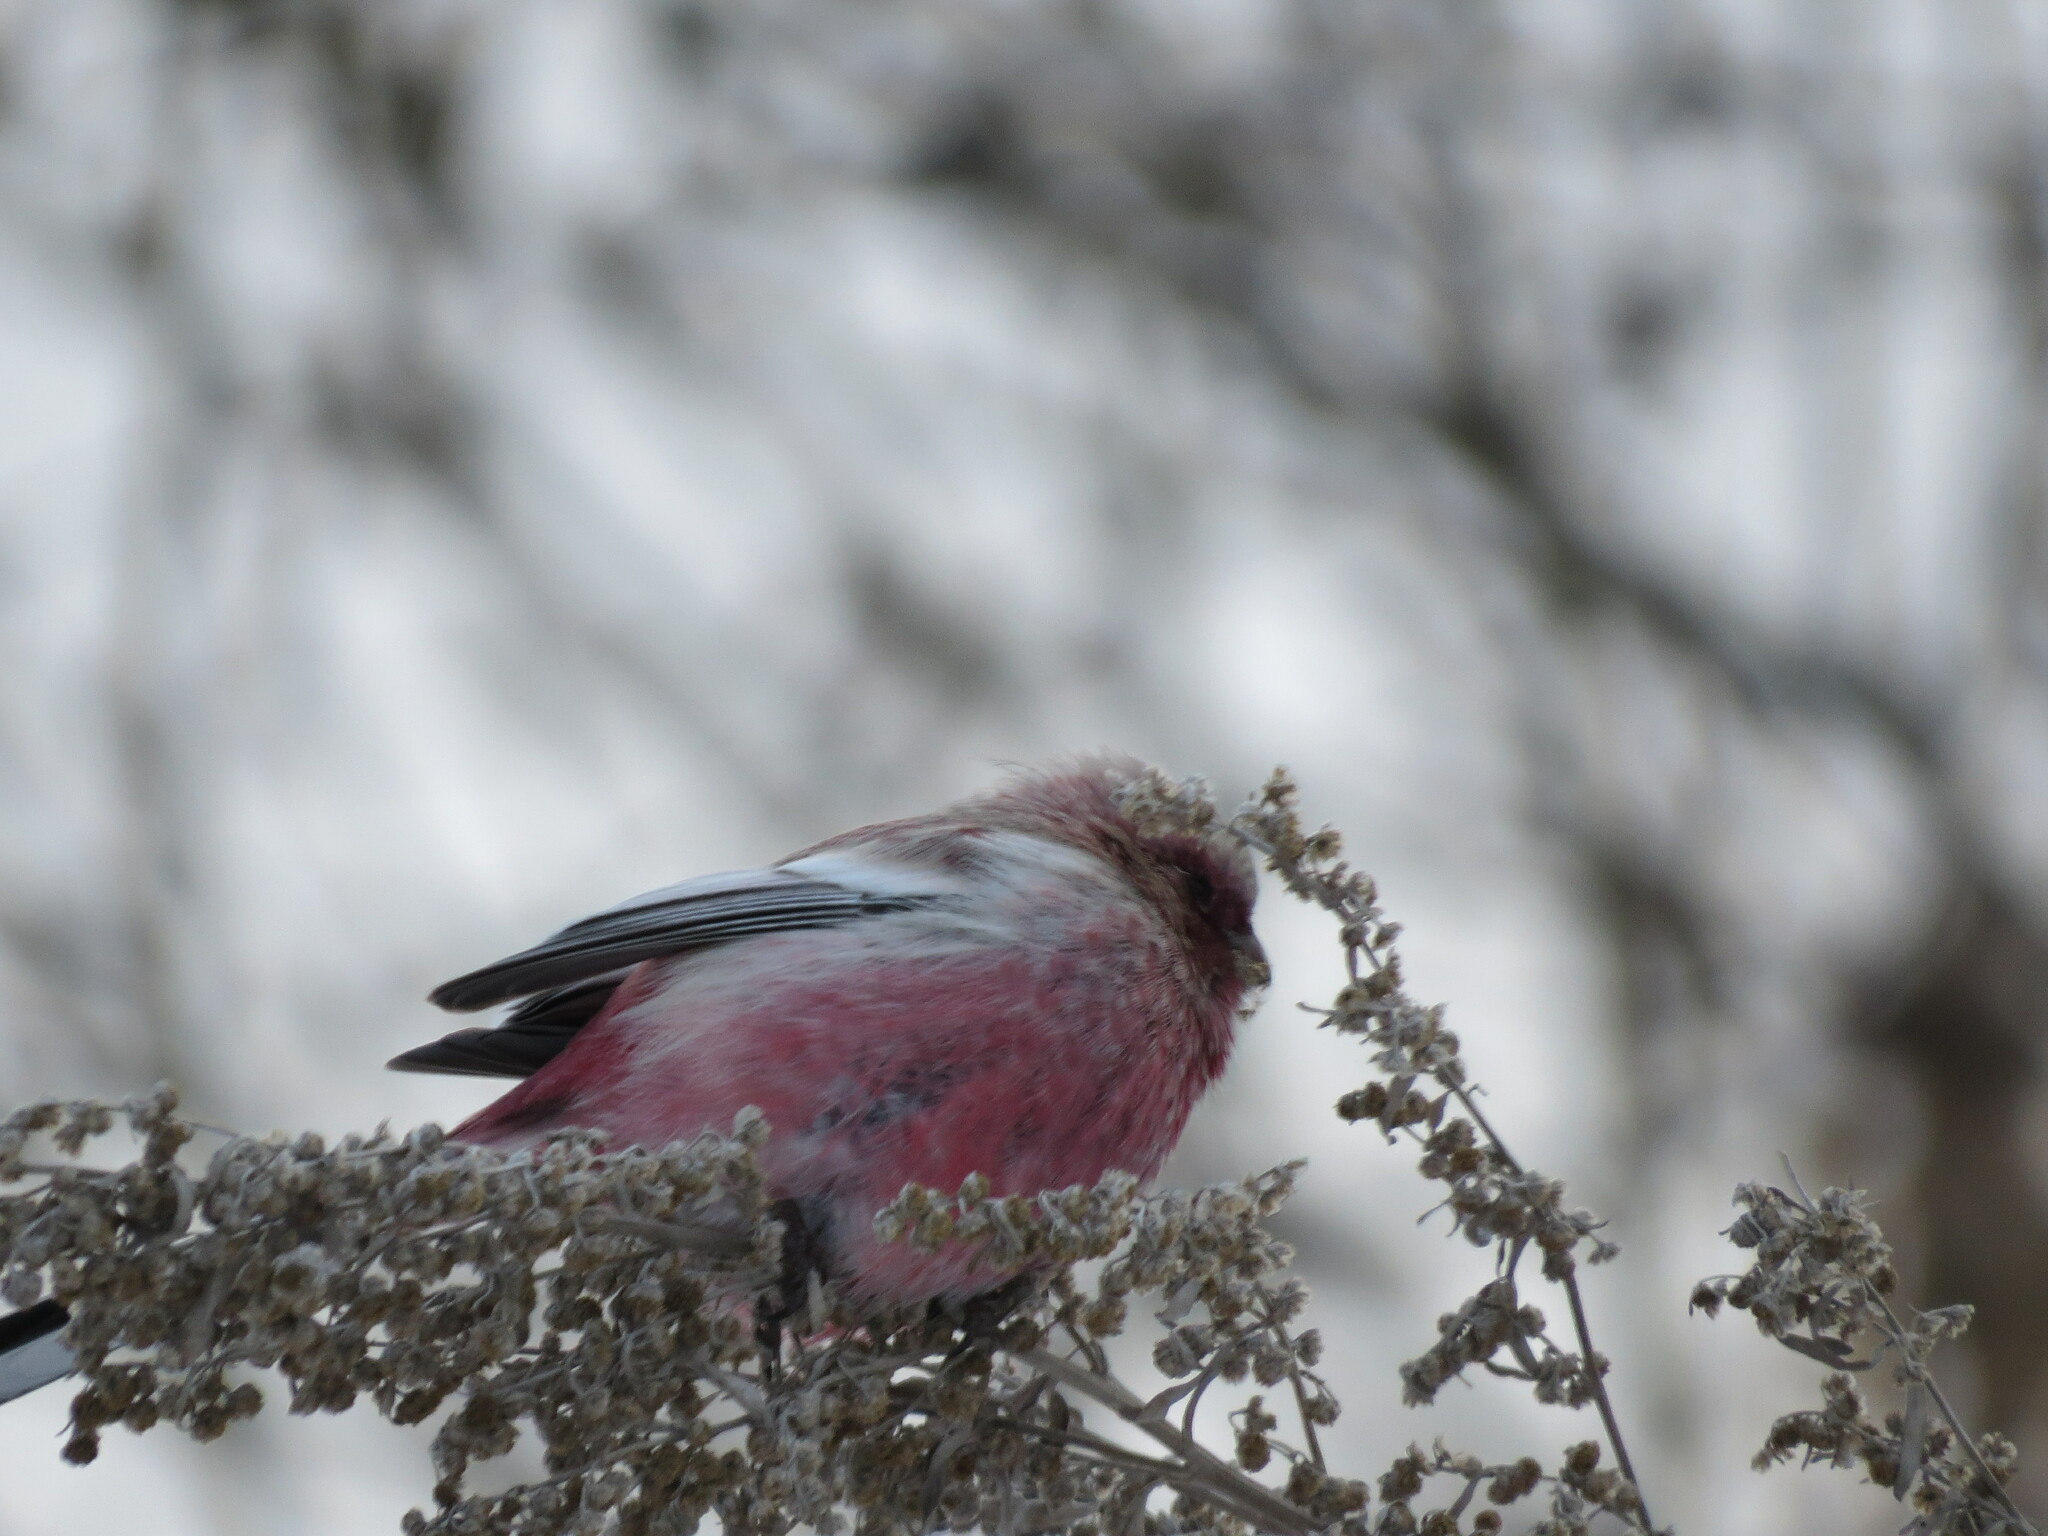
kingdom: Animalia
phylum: Chordata
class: Aves
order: Passeriformes
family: Fringillidae
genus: Carpodacus
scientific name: Carpodacus sibiricus
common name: Long-tailed rosefinch
